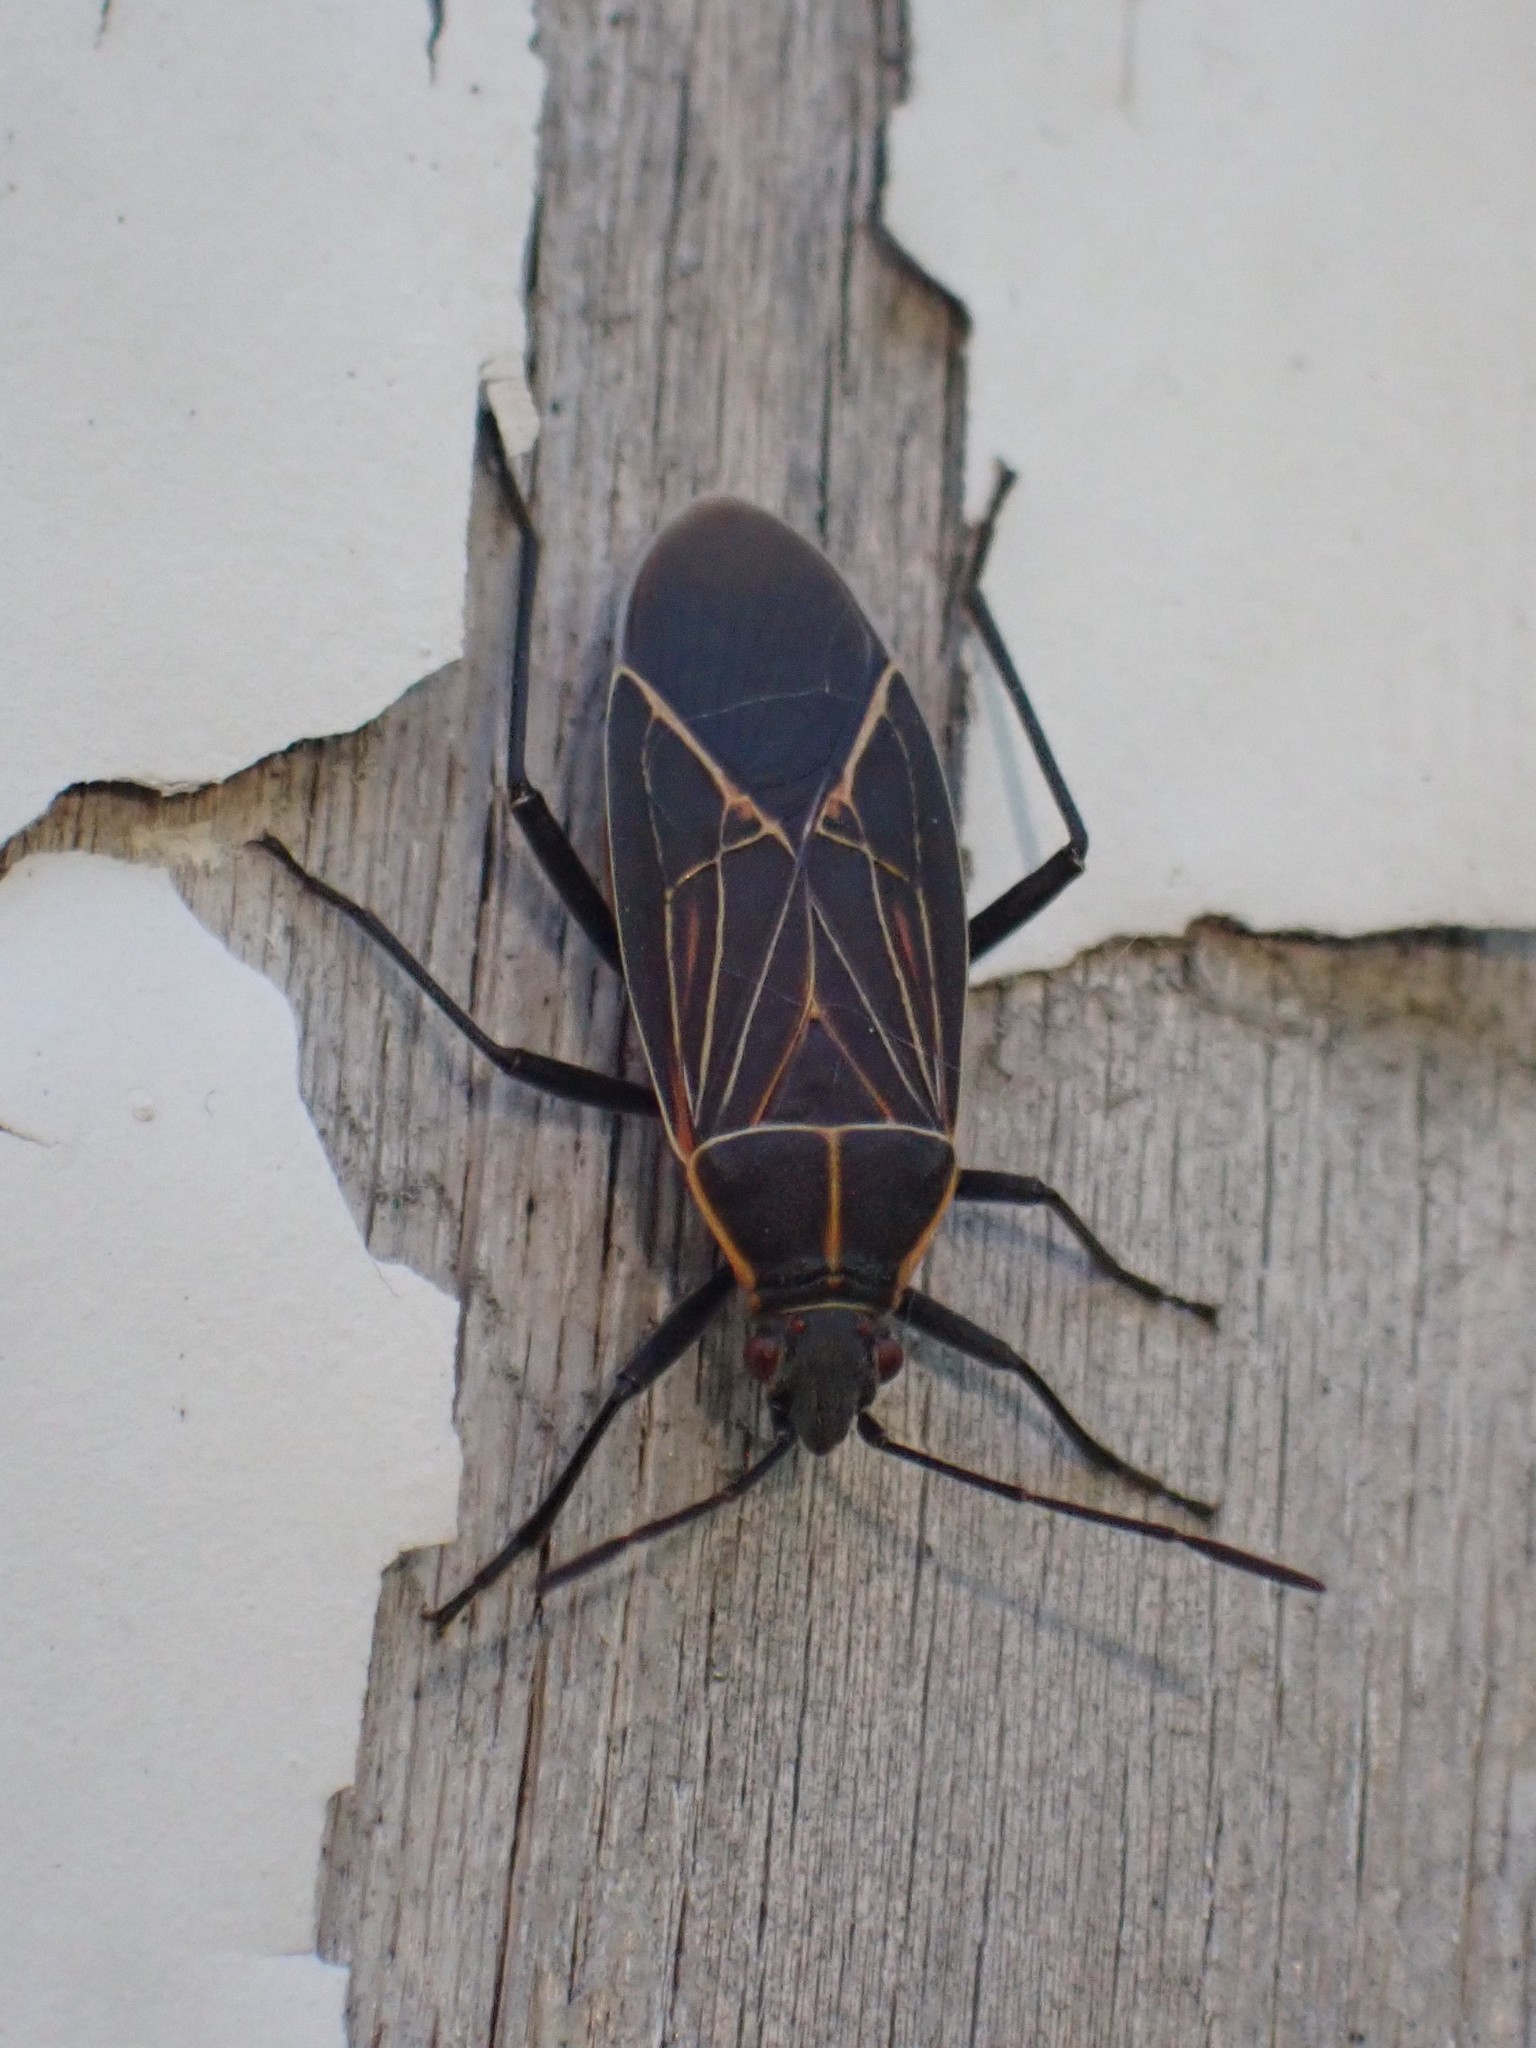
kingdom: Animalia
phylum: Arthropoda
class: Insecta
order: Hemiptera
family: Rhopalidae
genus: Boisea
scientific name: Boisea rubrolineata
